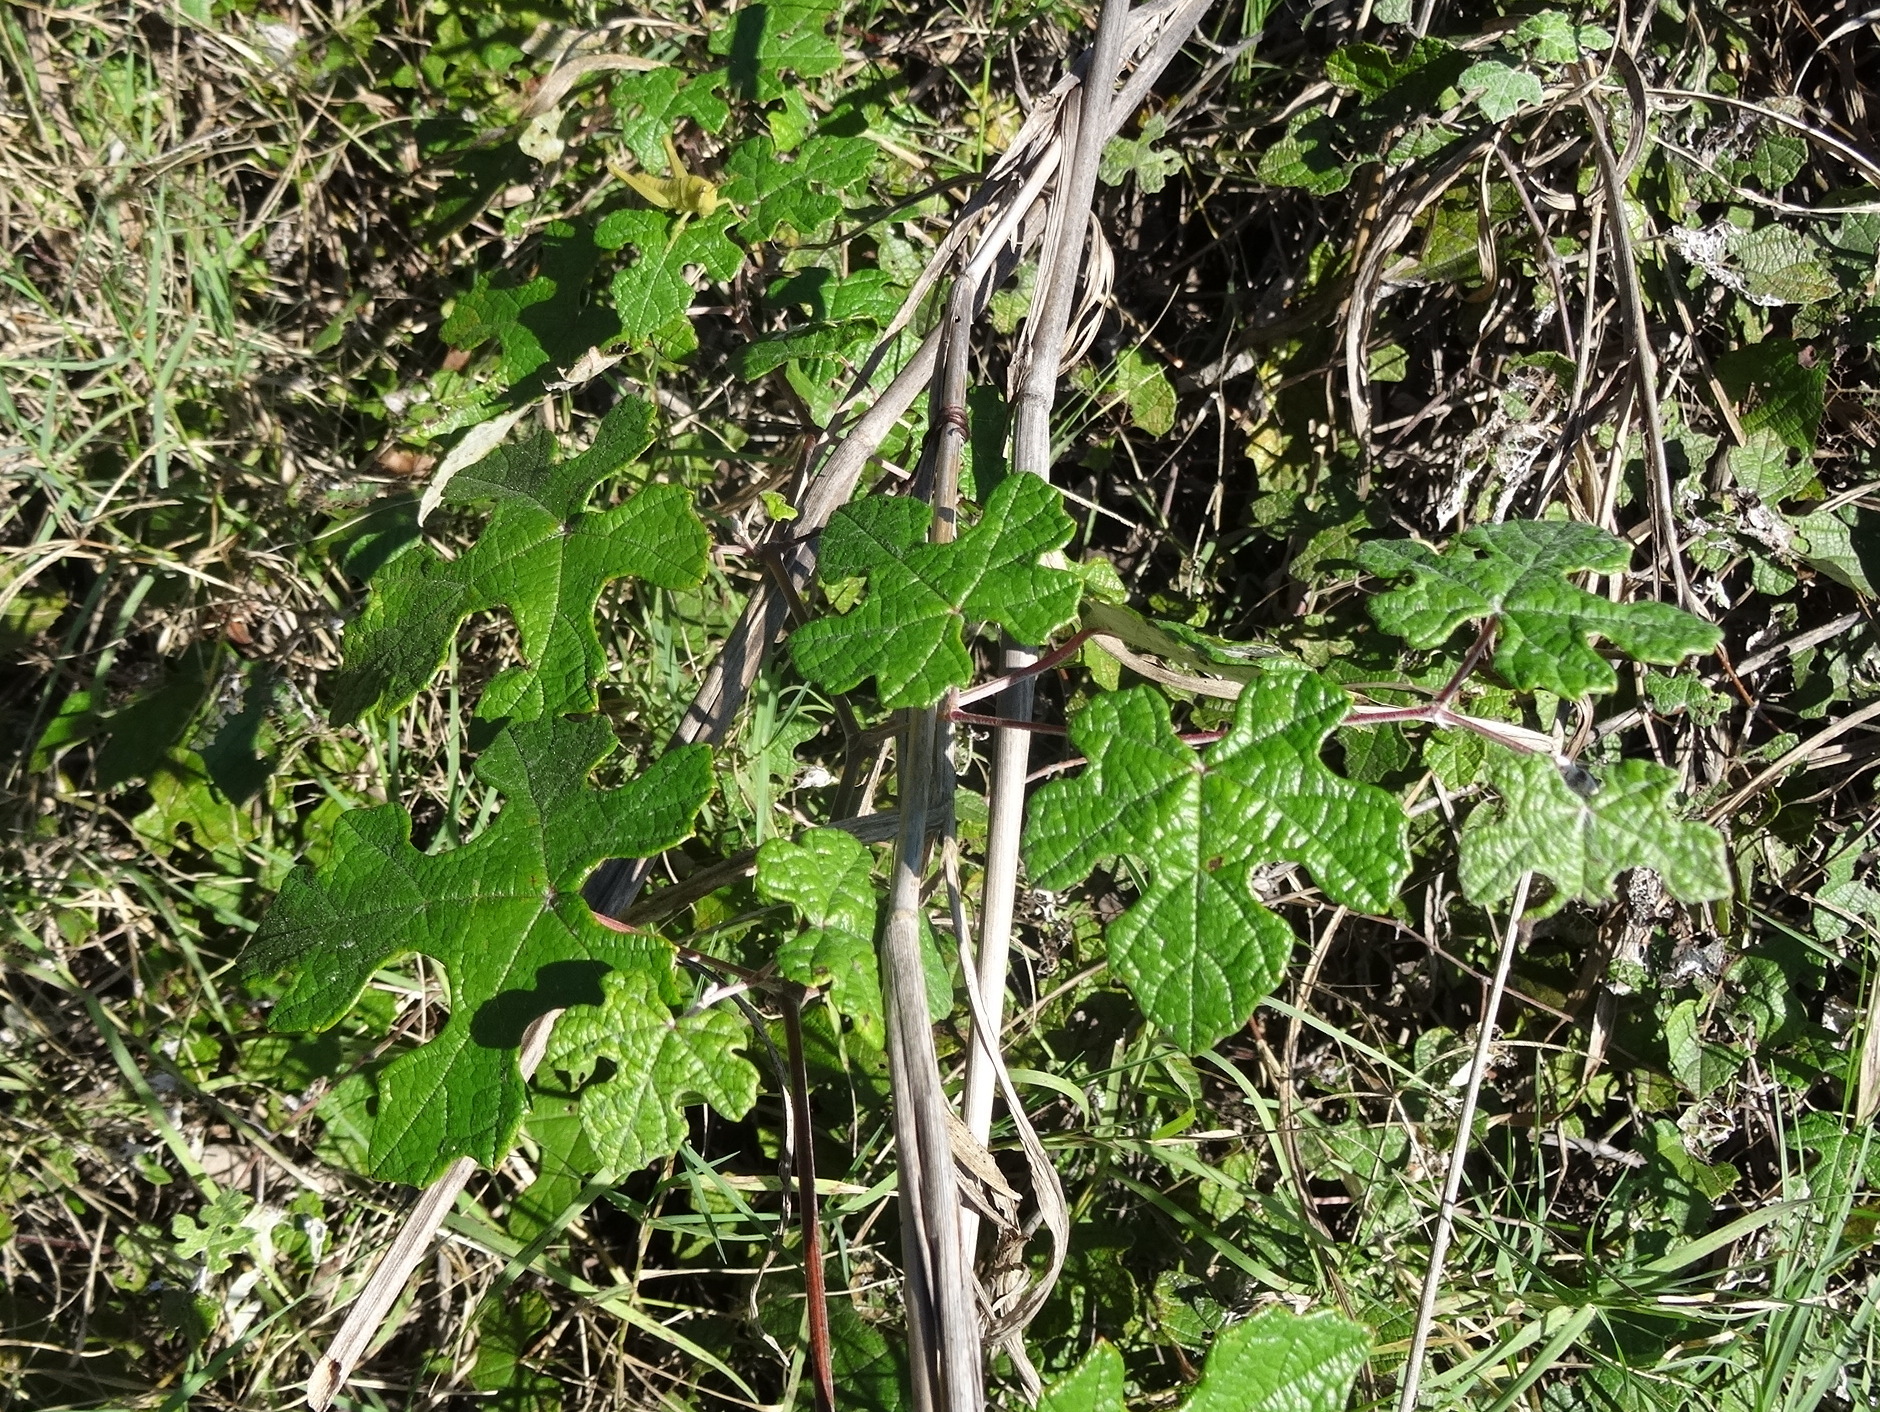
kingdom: Plantae
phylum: Tracheophyta
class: Magnoliopsida
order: Vitales
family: Vitaceae
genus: Vitis
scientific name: Vitis mustangensis
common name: Mustang grape
